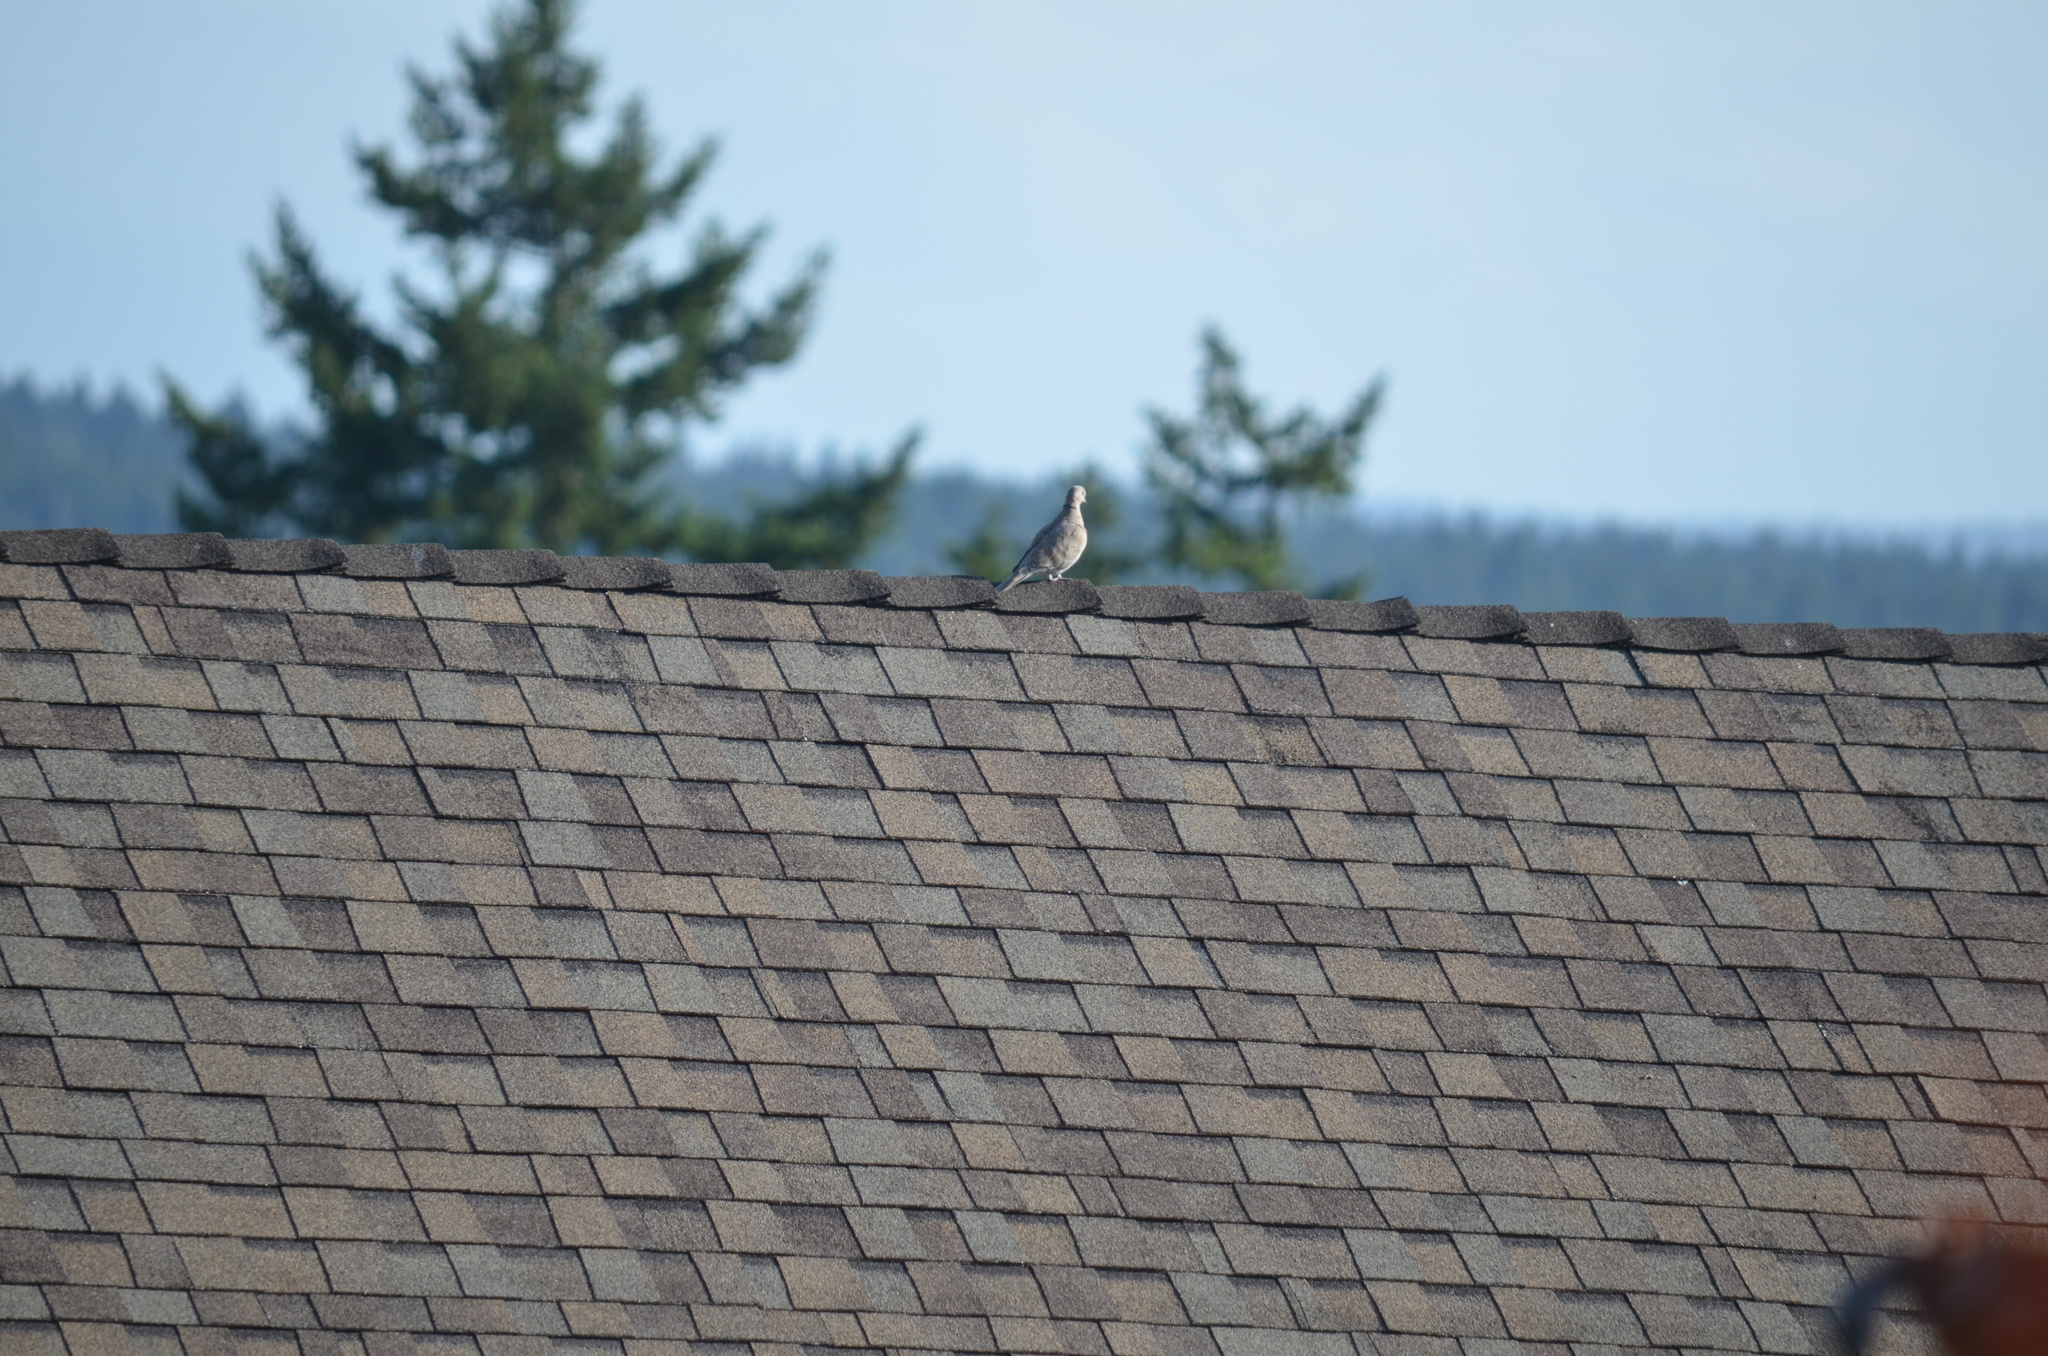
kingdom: Animalia
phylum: Chordata
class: Aves
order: Columbiformes
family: Columbidae
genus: Streptopelia
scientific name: Streptopelia decaocto
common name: Eurasian collared dove
